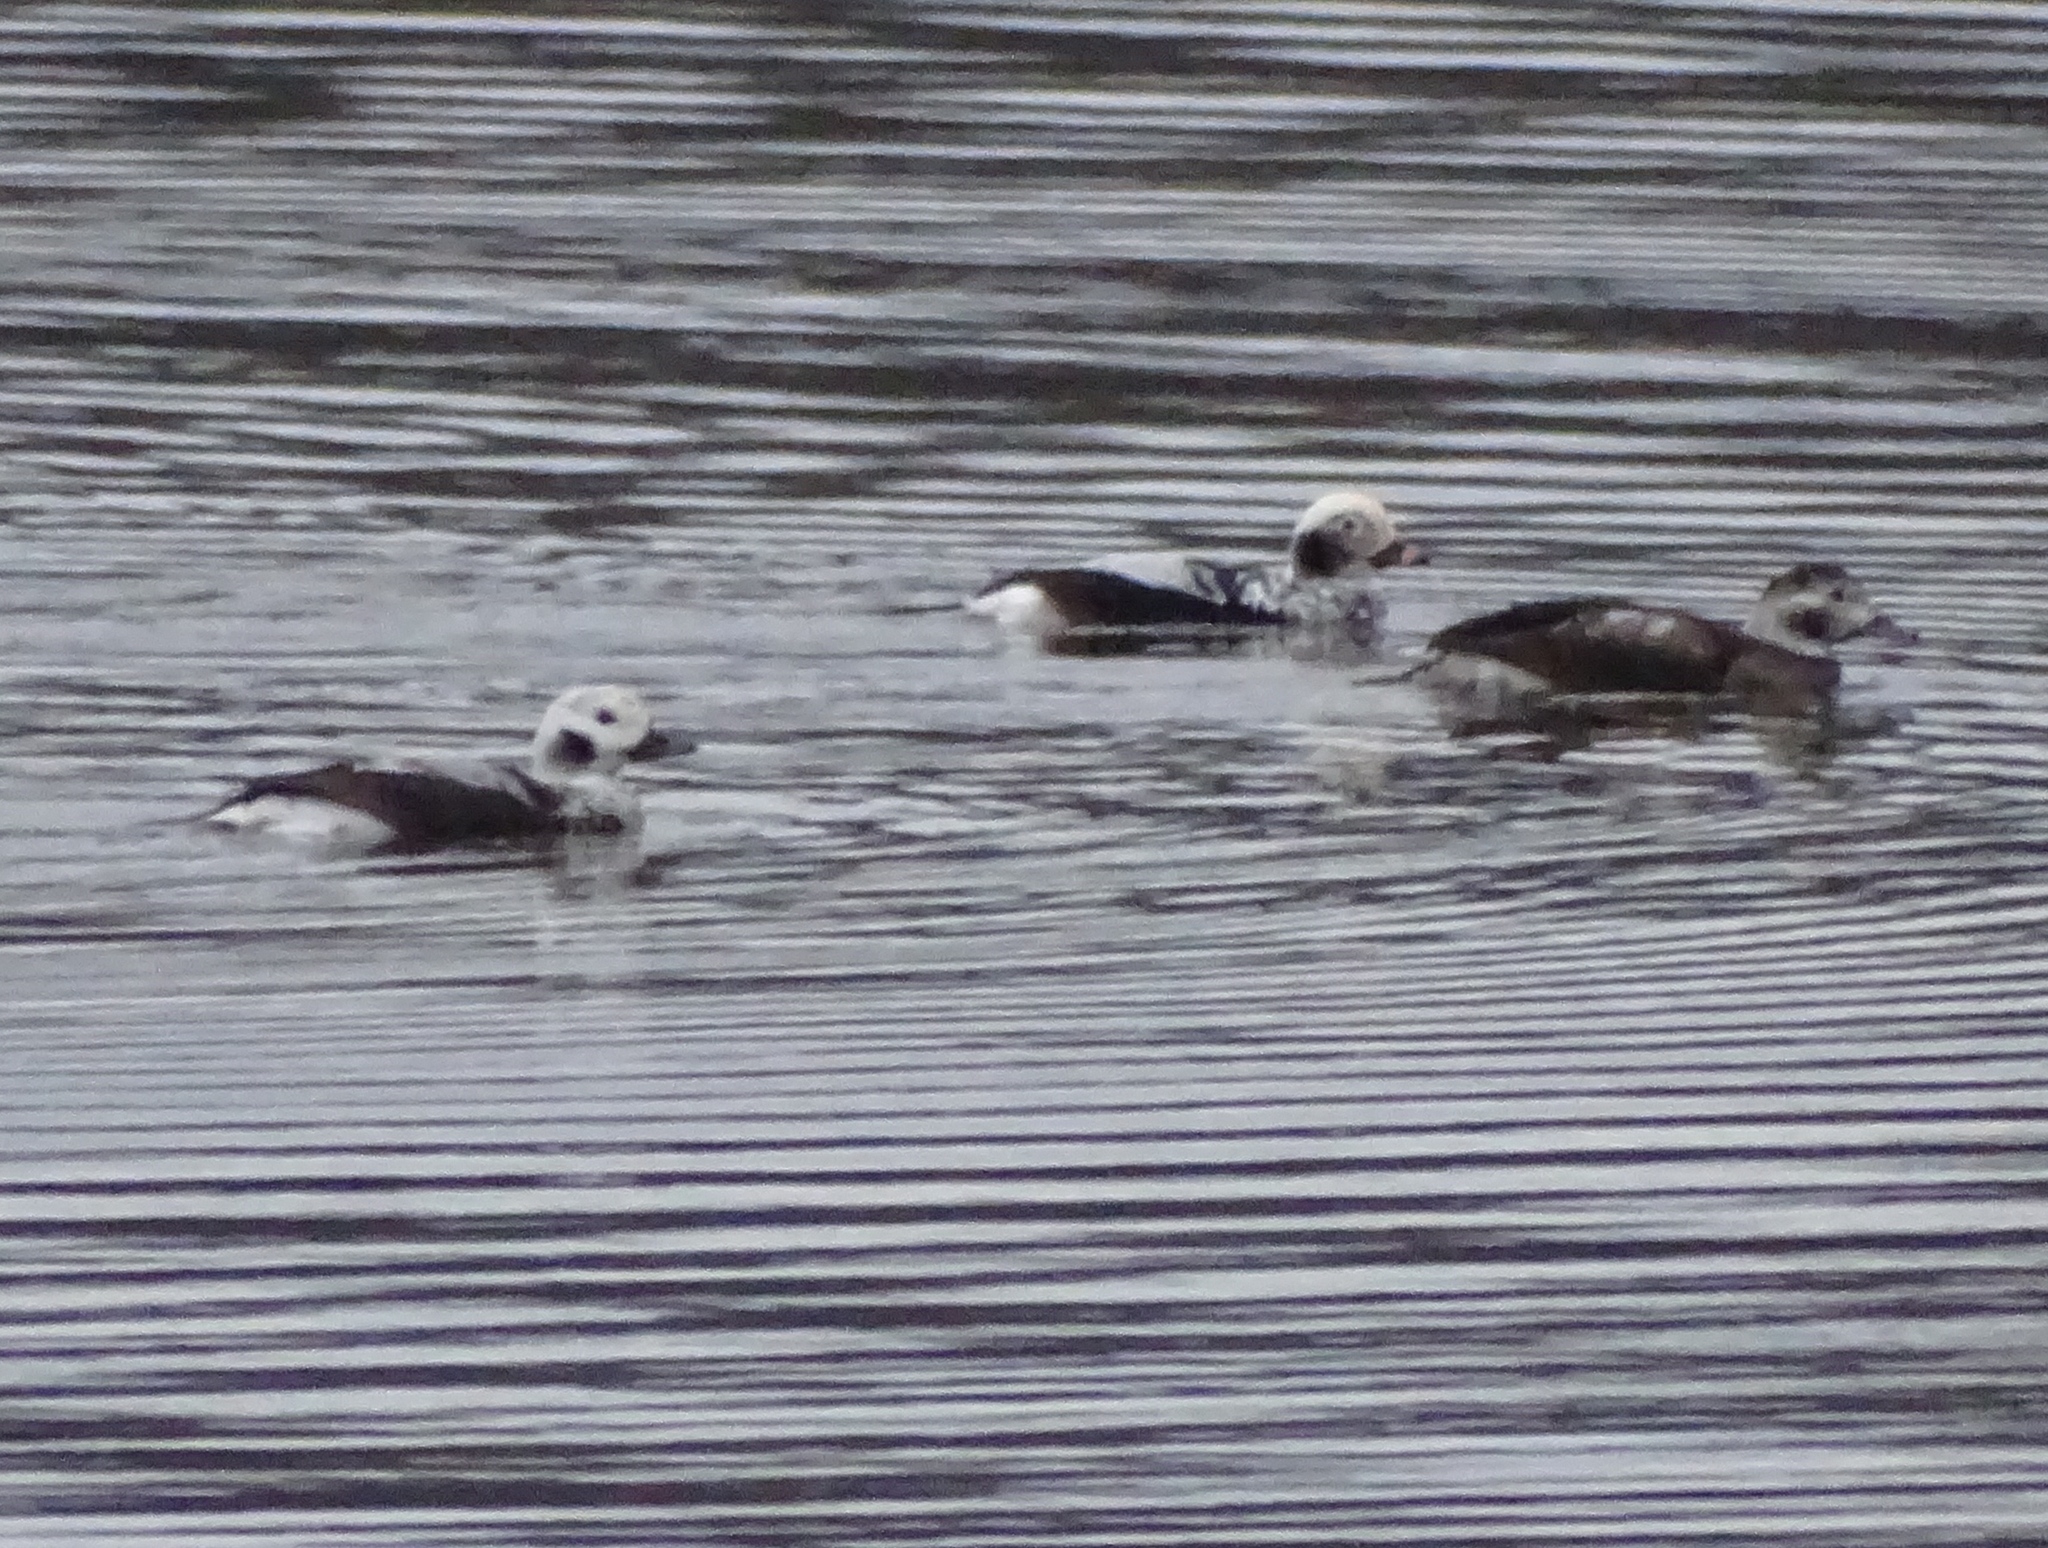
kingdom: Animalia
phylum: Chordata
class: Aves
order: Anseriformes
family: Anatidae
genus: Clangula
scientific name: Clangula hyemalis
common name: Long-tailed duck
